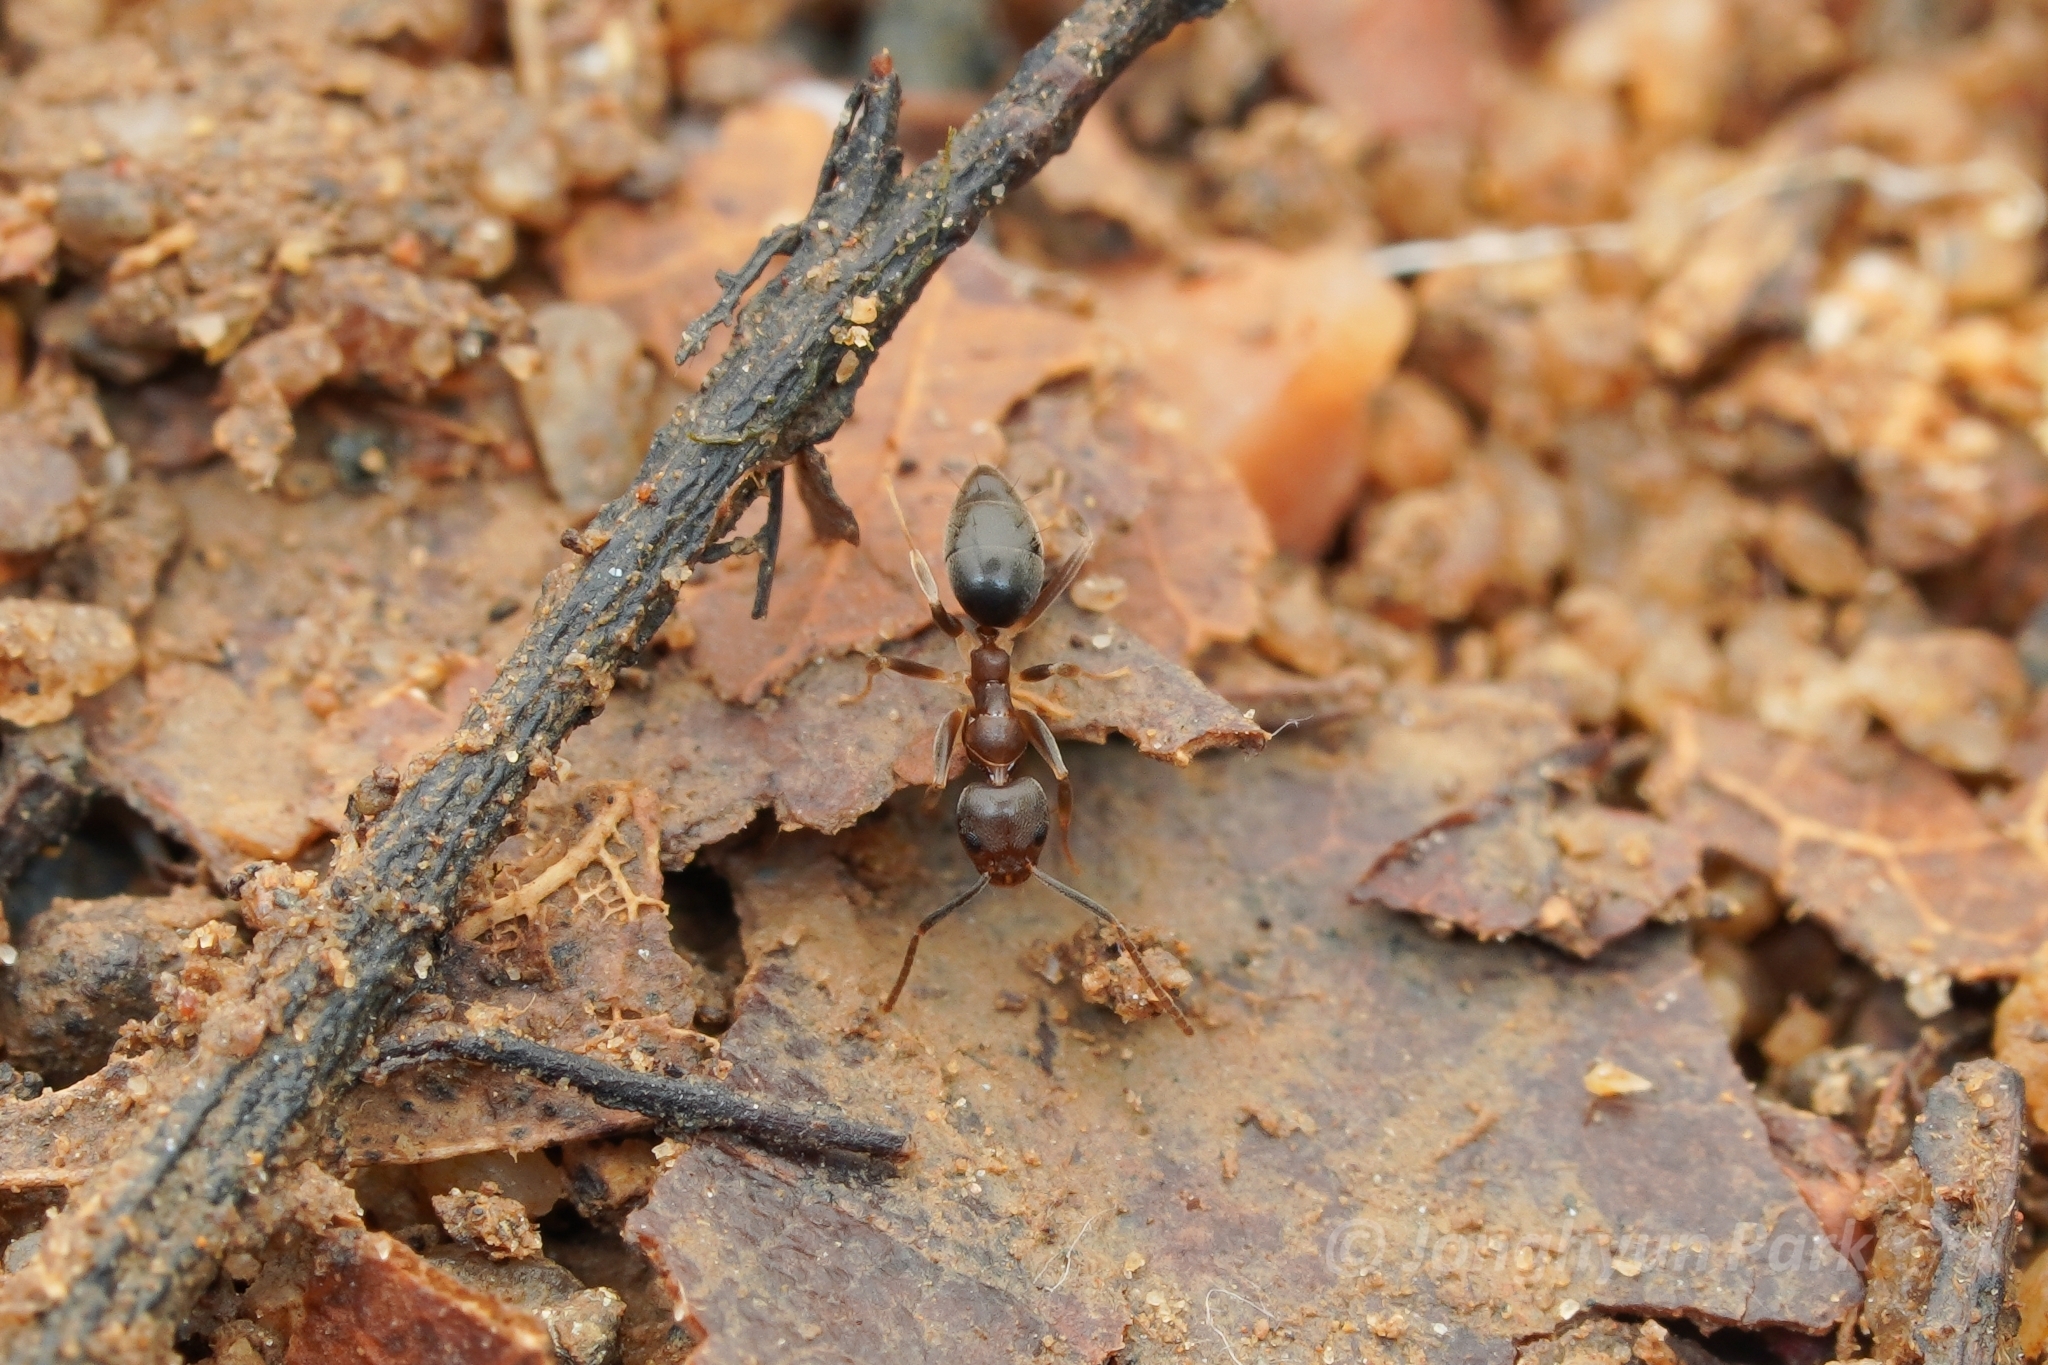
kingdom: Animalia
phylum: Arthropoda
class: Insecta
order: Hymenoptera
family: Formicidae
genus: Technomyrmex
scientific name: Technomyrmex kraepelini
